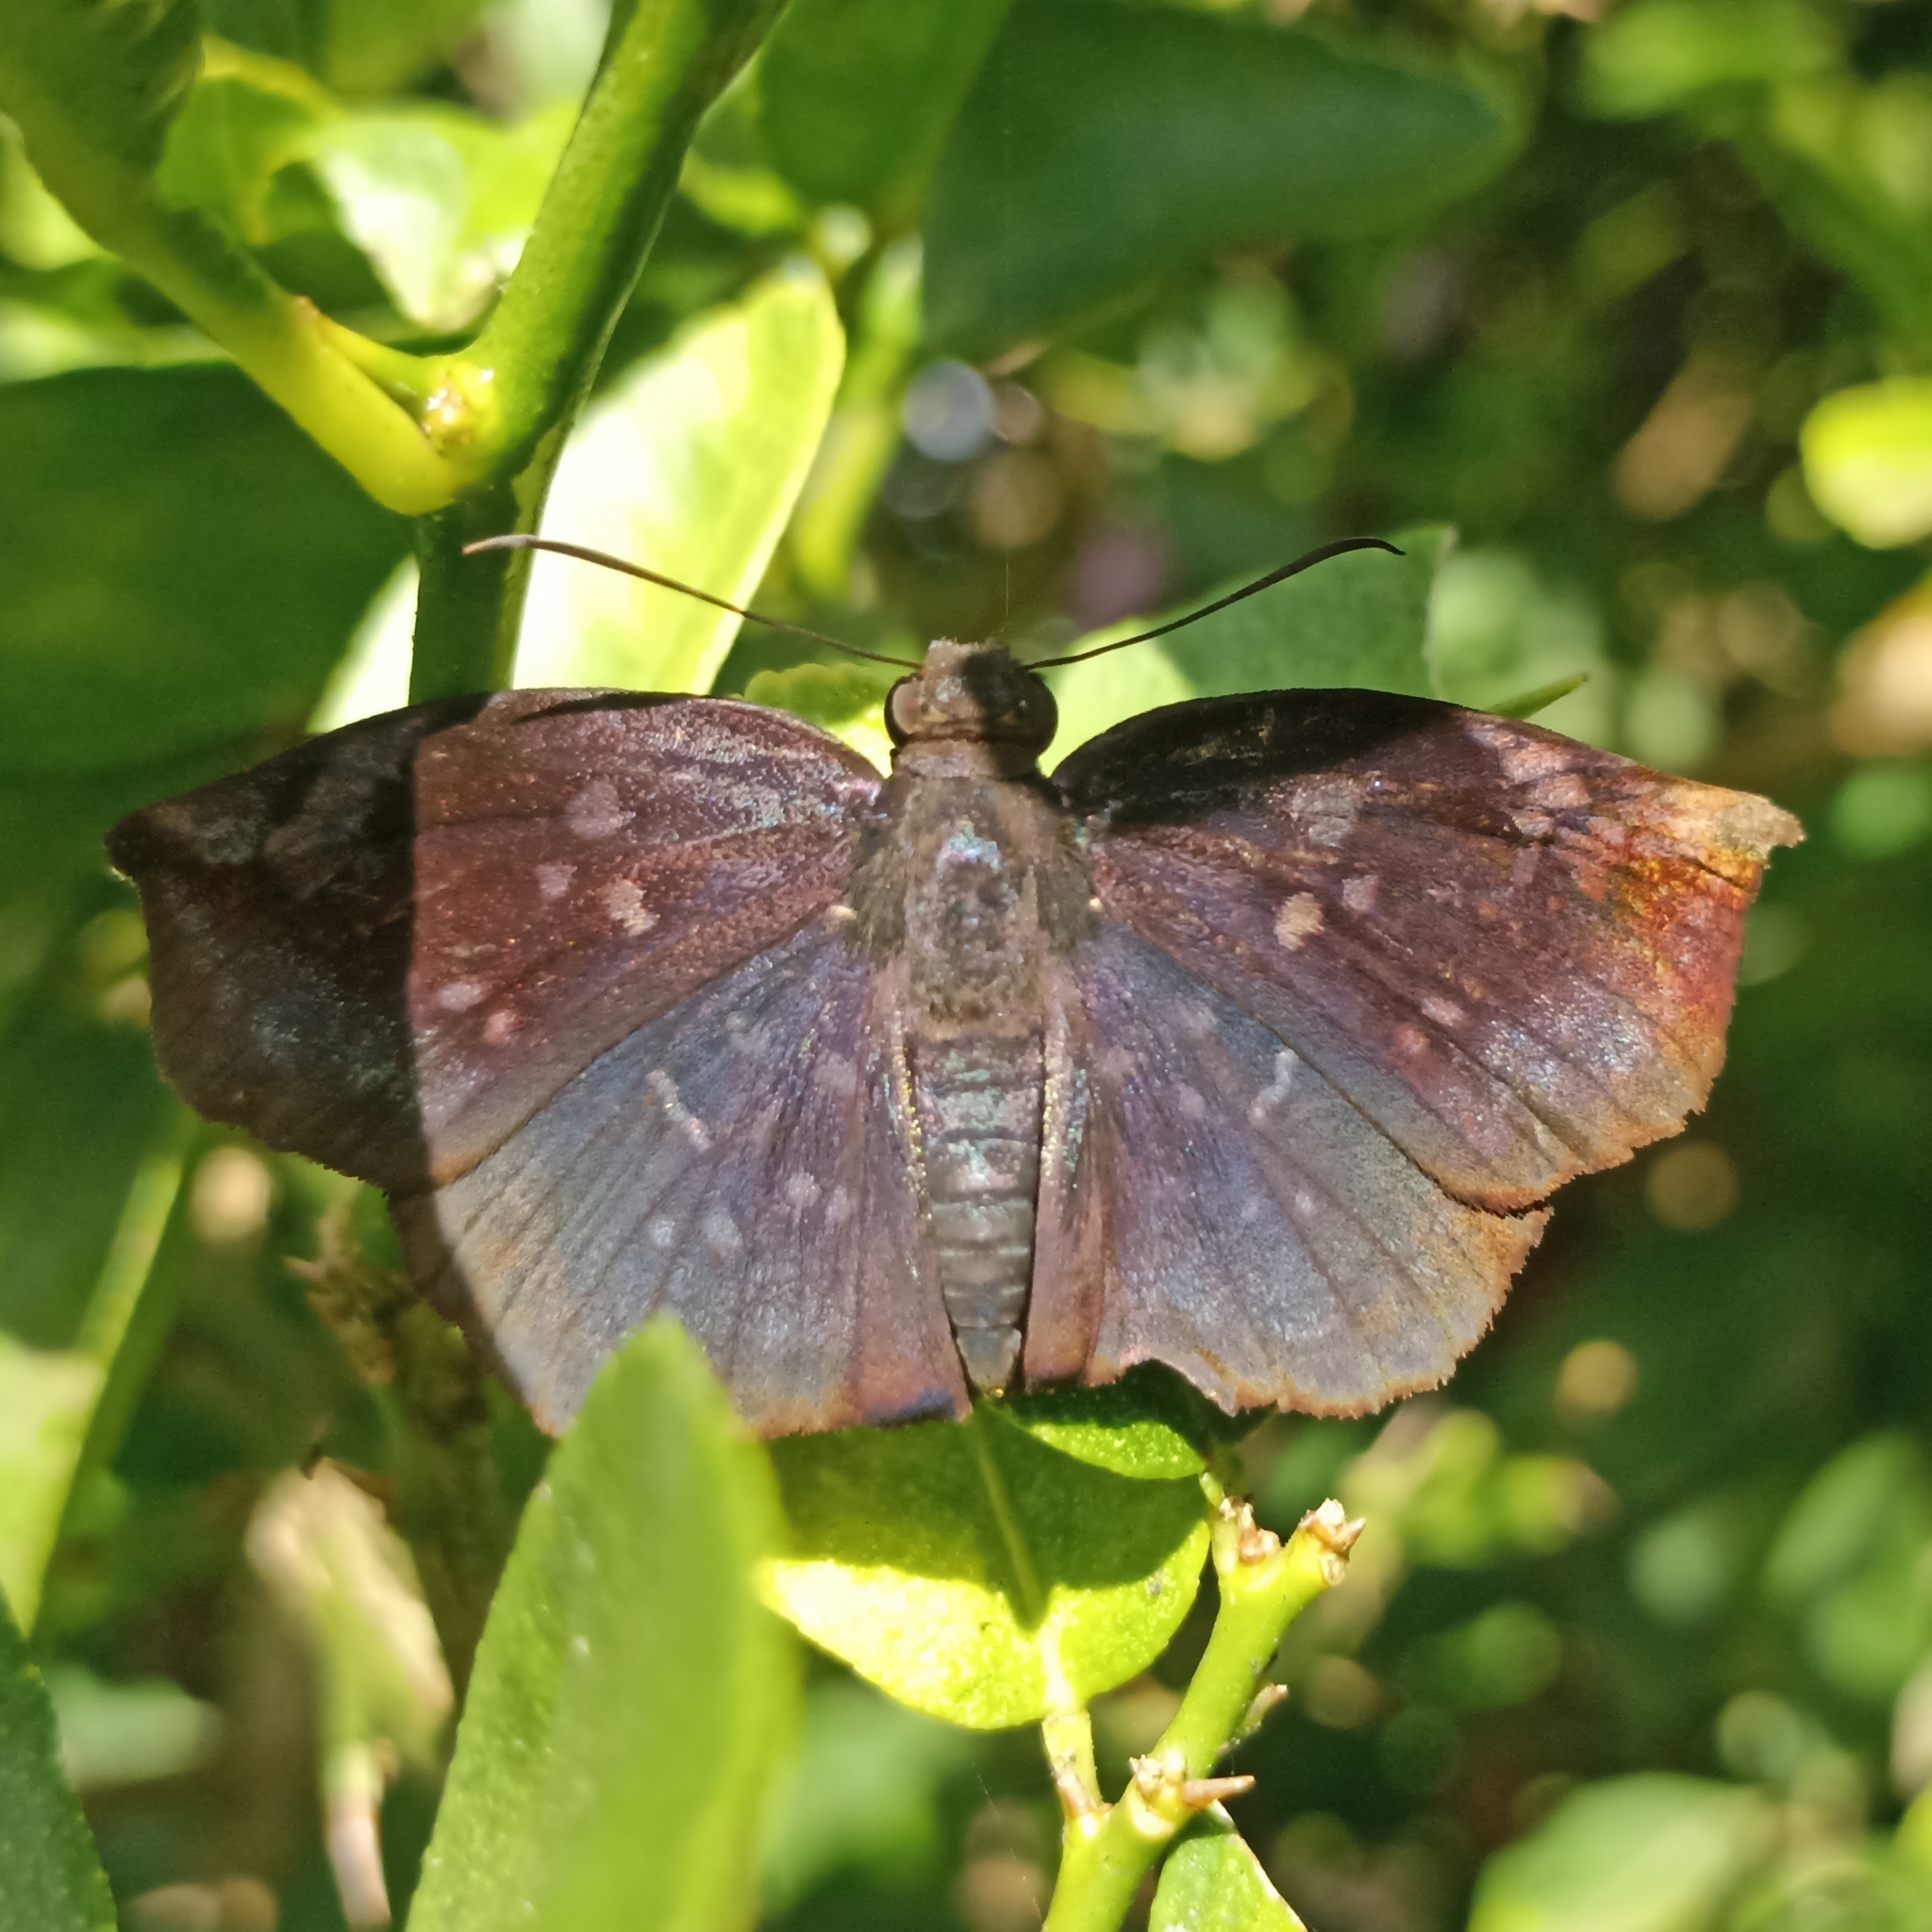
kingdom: Animalia
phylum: Arthropoda
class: Insecta
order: Lepidoptera
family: Hesperiidae
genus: Achlyodes
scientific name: Achlyodes thraso
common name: Sickle-winged skipper
